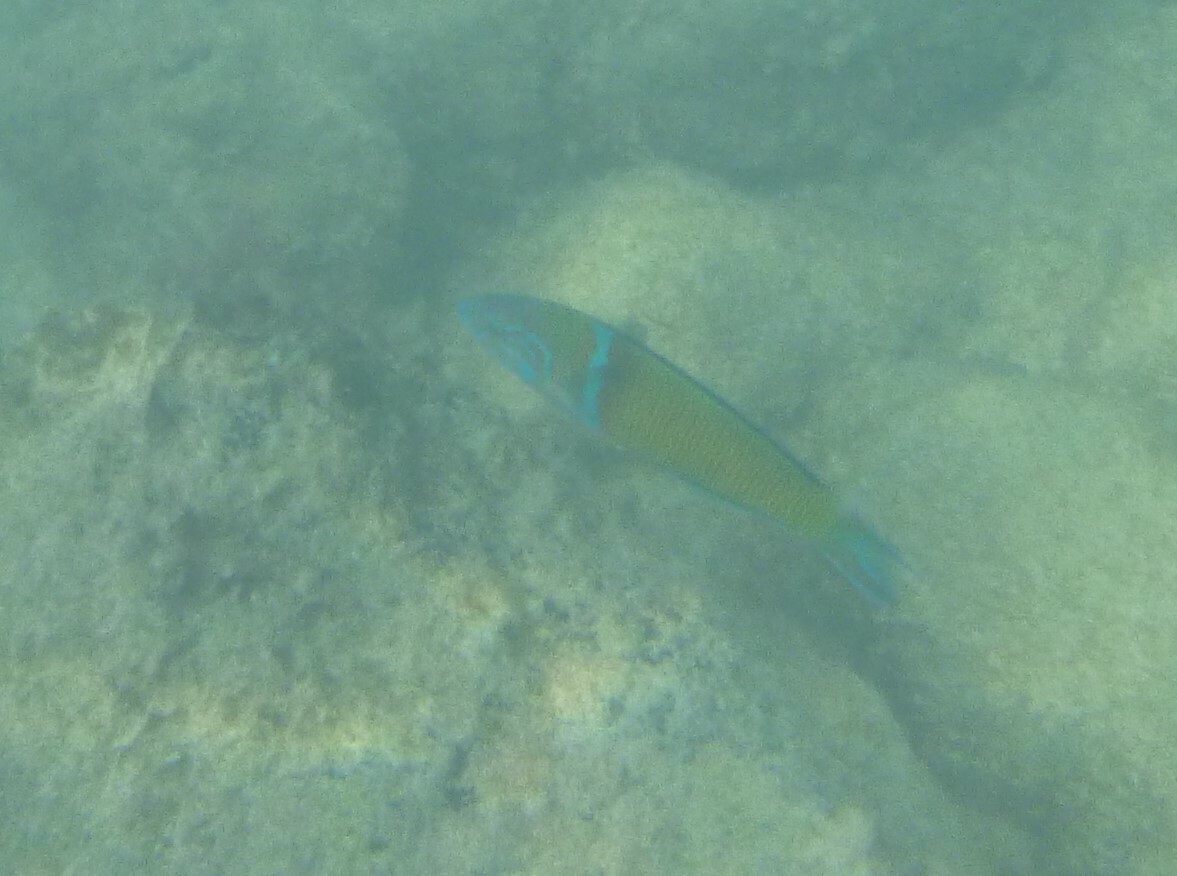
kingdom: Animalia
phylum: Chordata
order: Perciformes
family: Labridae
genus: Thalassoma
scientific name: Thalassoma pavo
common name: Ornate wrasse
